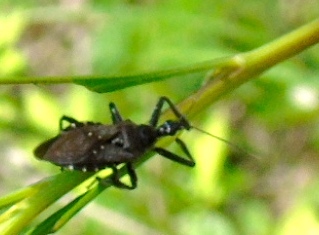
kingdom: Animalia
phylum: Arthropoda
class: Insecta
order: Hemiptera
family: Reduviidae
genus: Apiomerus
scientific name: Apiomerus longispinis
